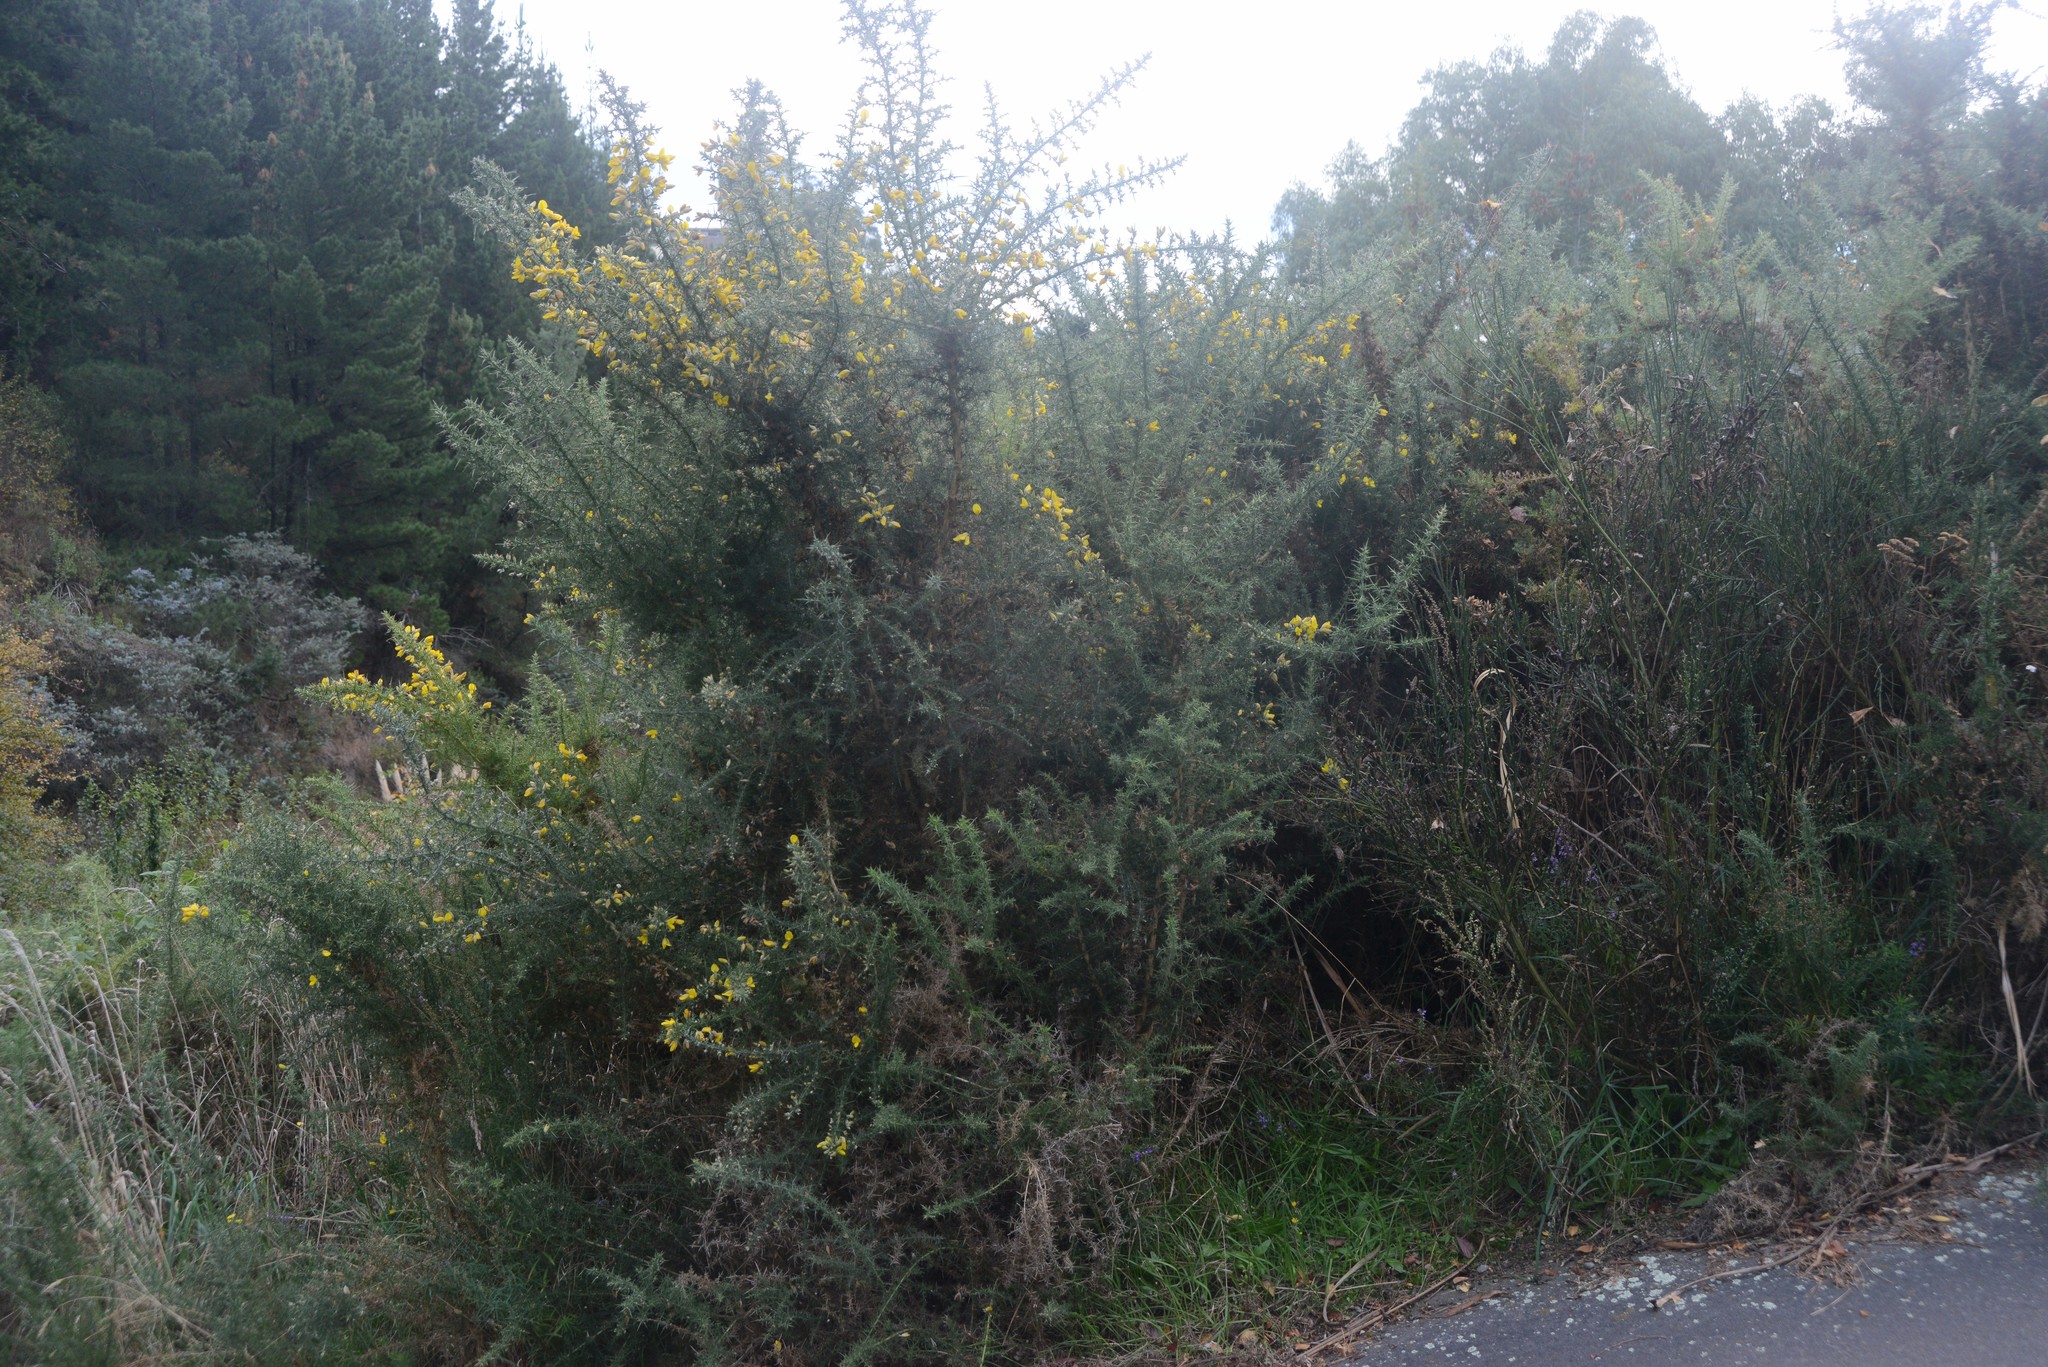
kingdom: Plantae
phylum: Tracheophyta
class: Magnoliopsida
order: Fabales
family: Fabaceae
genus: Ulex
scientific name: Ulex europaeus
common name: Common gorse
